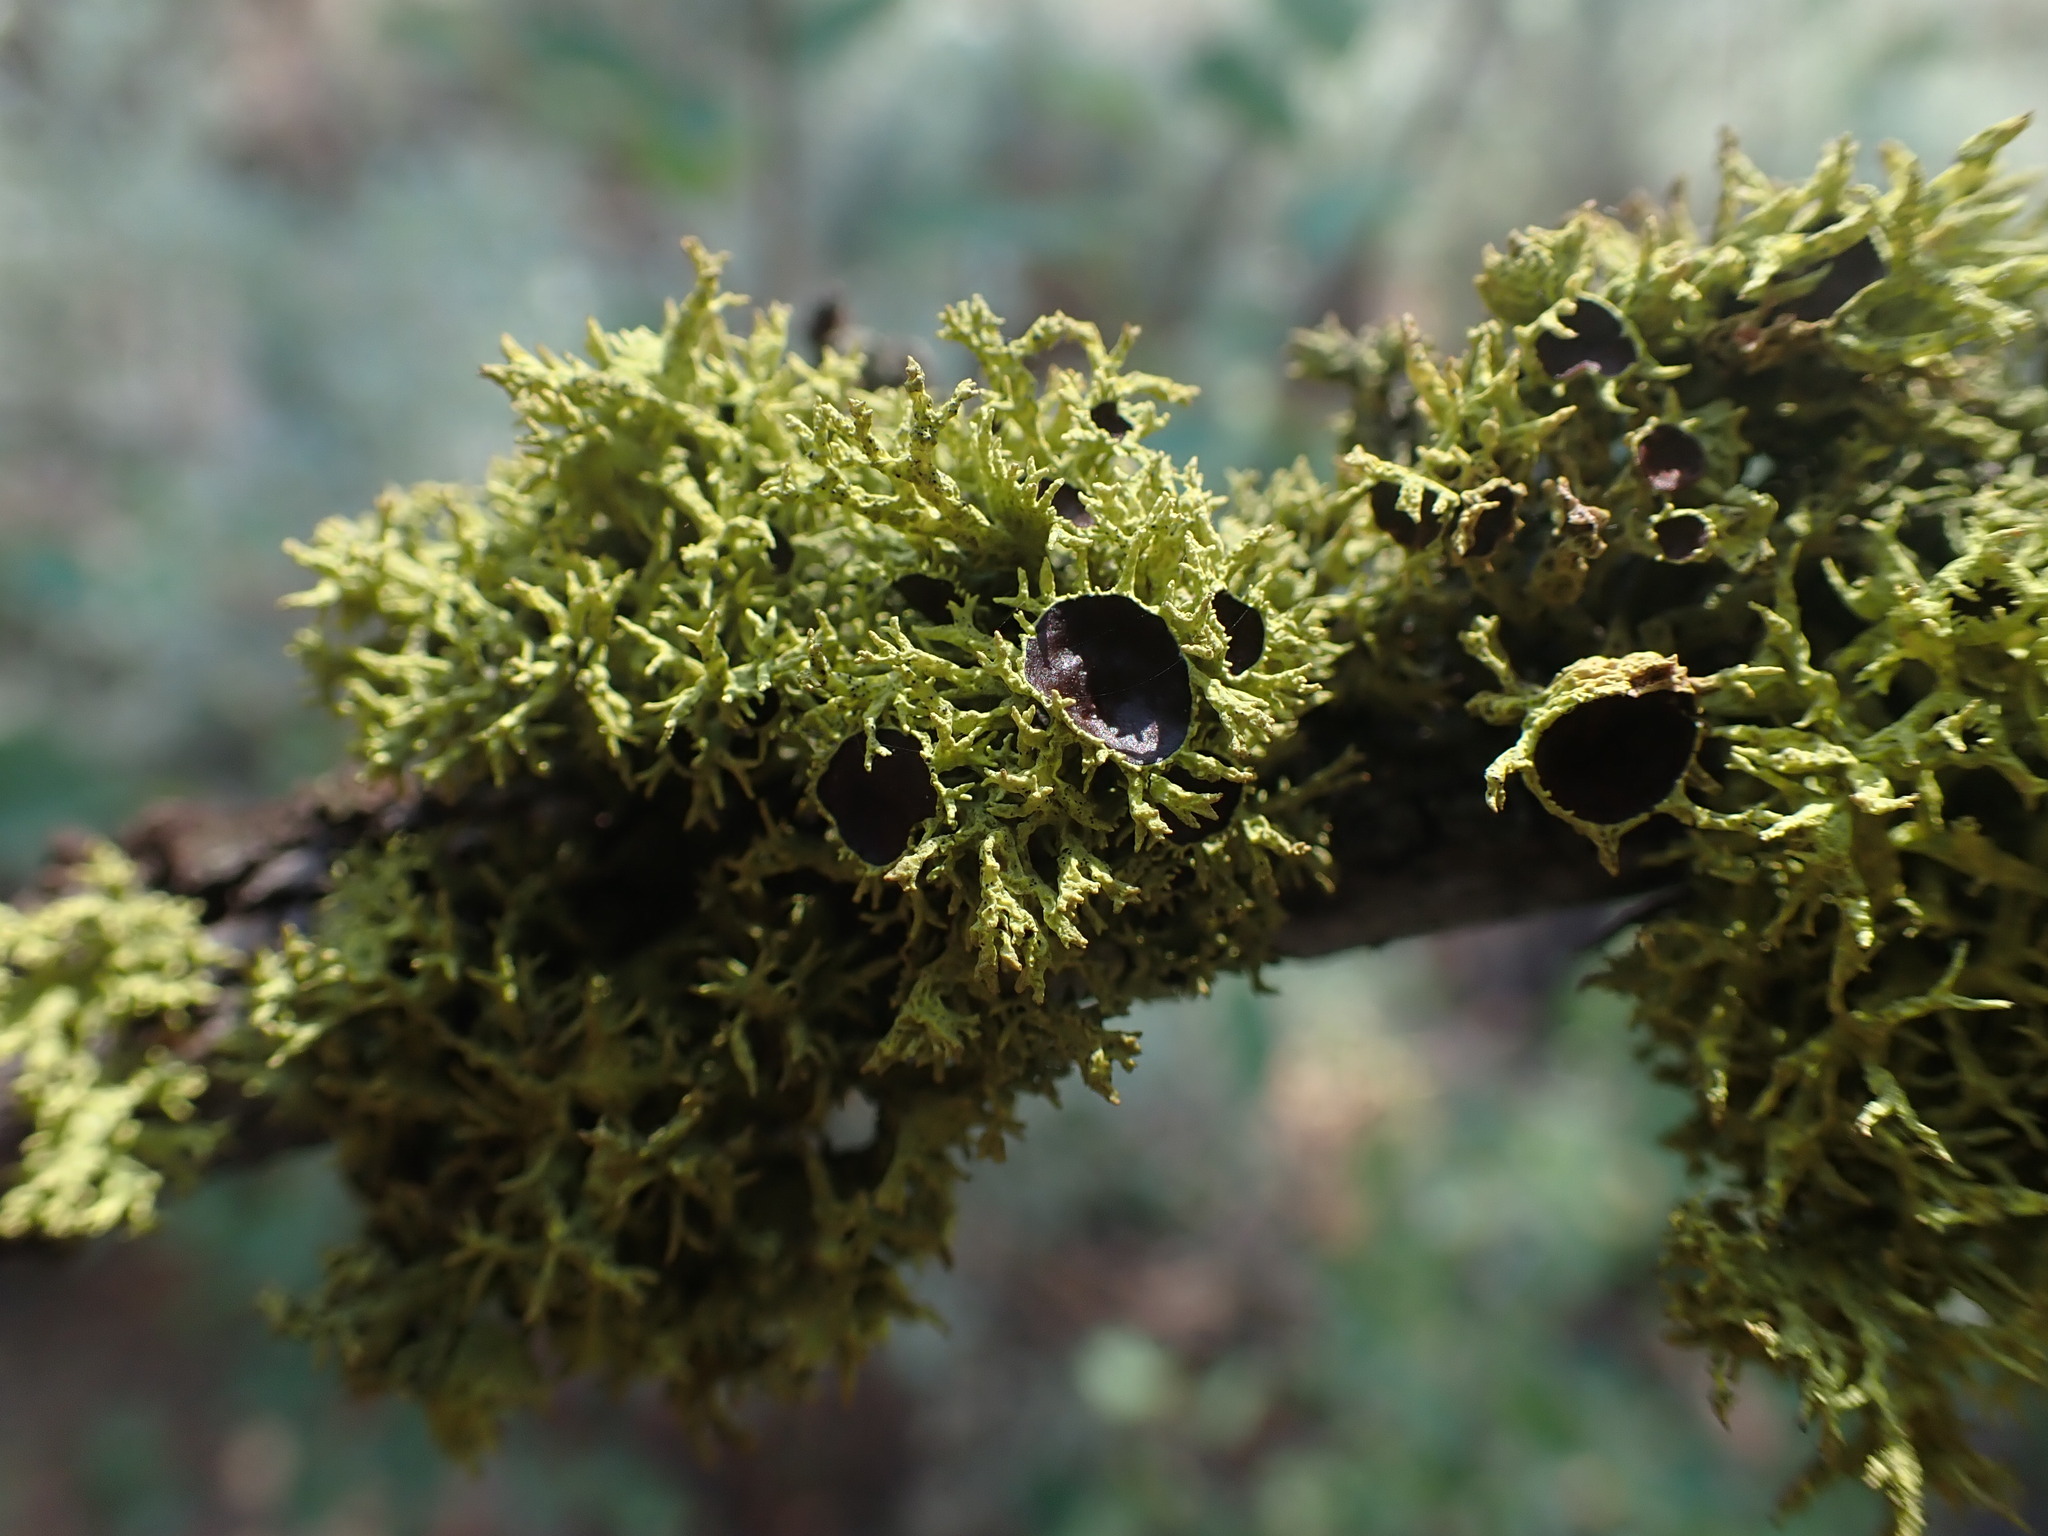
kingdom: Fungi
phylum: Ascomycota
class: Lecanoromycetes
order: Lecanorales
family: Parmeliaceae
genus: Letharia
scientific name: Letharia columbiana
